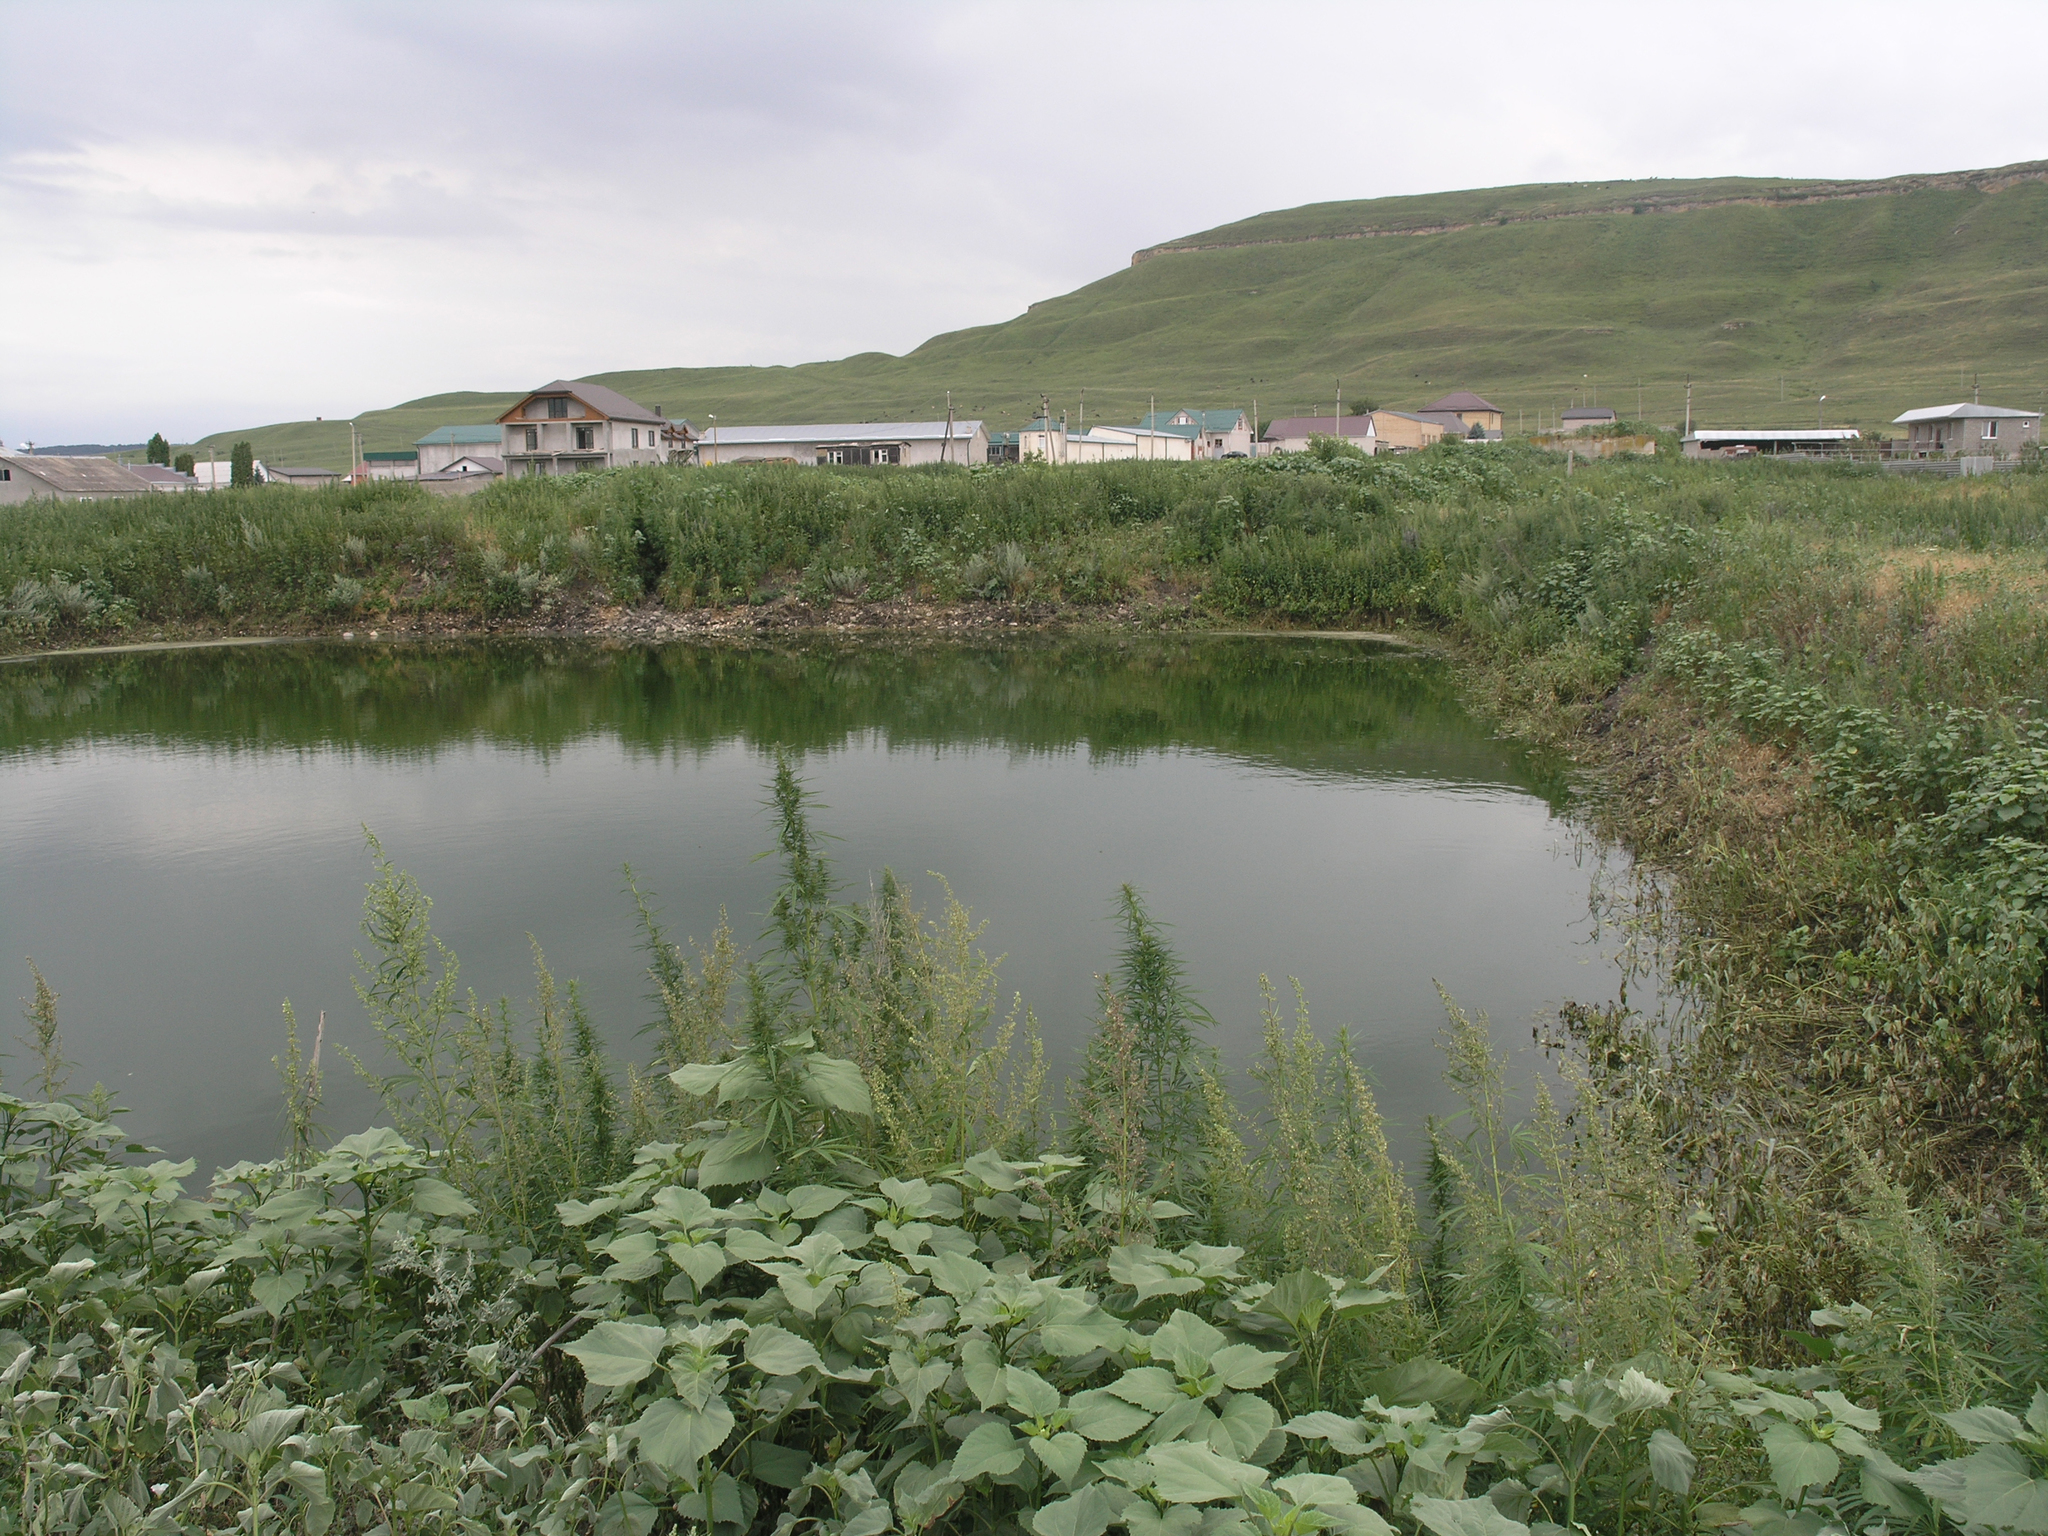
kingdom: Plantae
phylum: Tracheophyta
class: Magnoliopsida
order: Asterales
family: Asteraceae
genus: Cyclachaena
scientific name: Cyclachaena xanthiifolia
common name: Giant sumpweed
